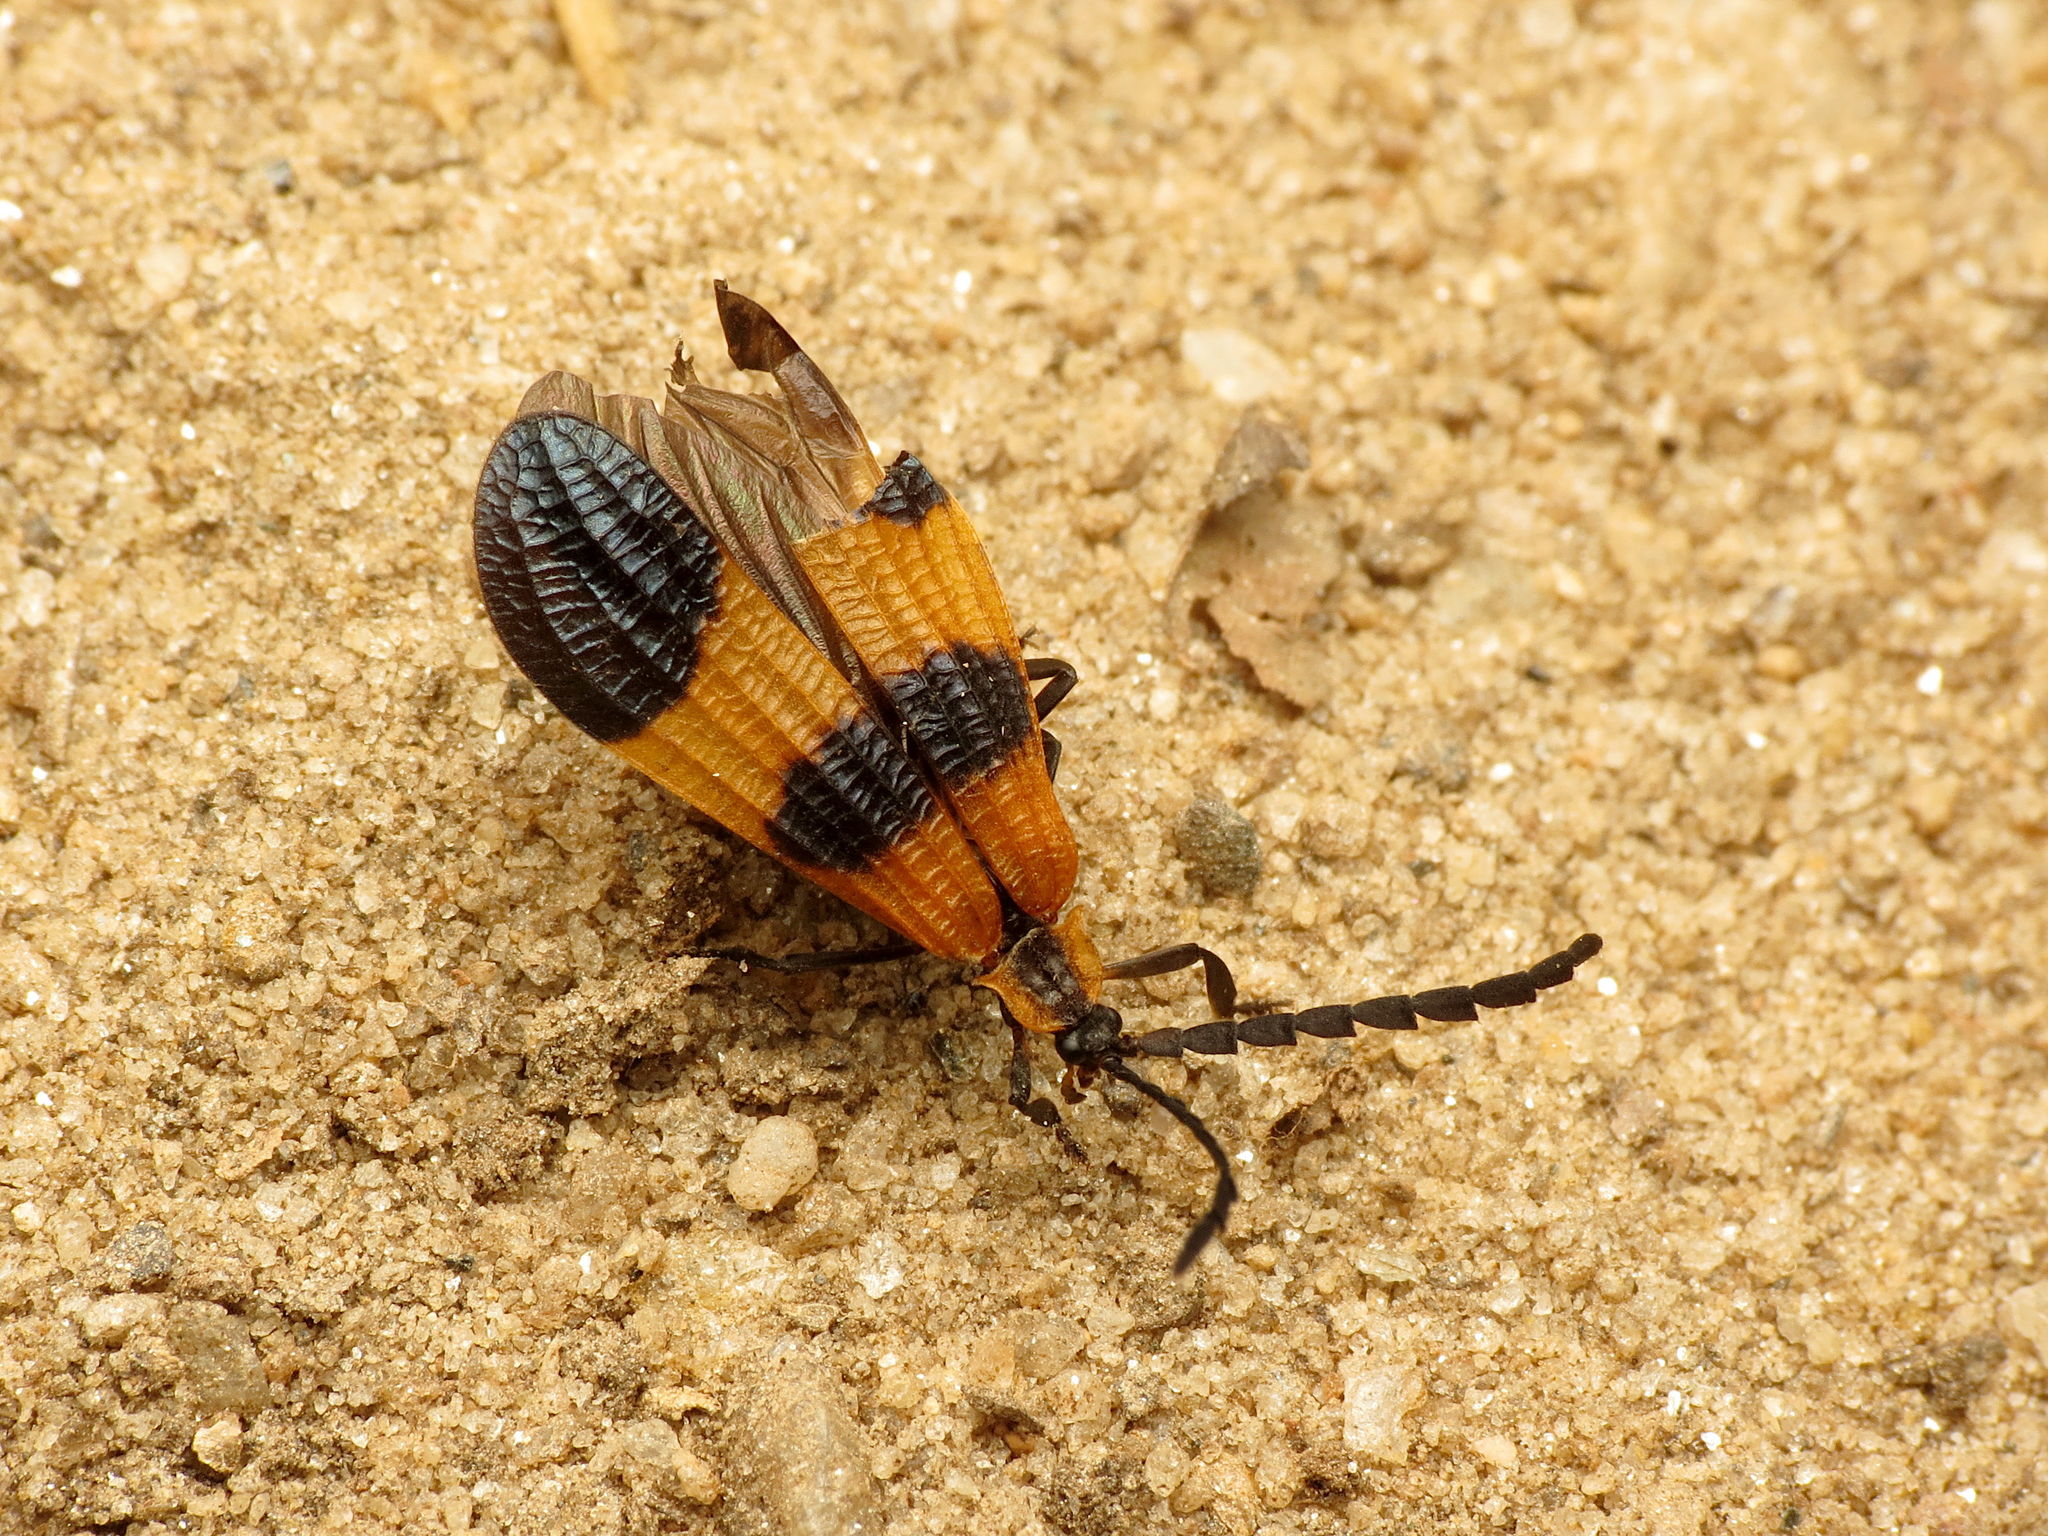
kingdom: Animalia
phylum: Arthropoda
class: Insecta
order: Coleoptera
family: Lycidae
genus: Calopteron
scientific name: Calopteron terminale
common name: End band net-winged beetle
